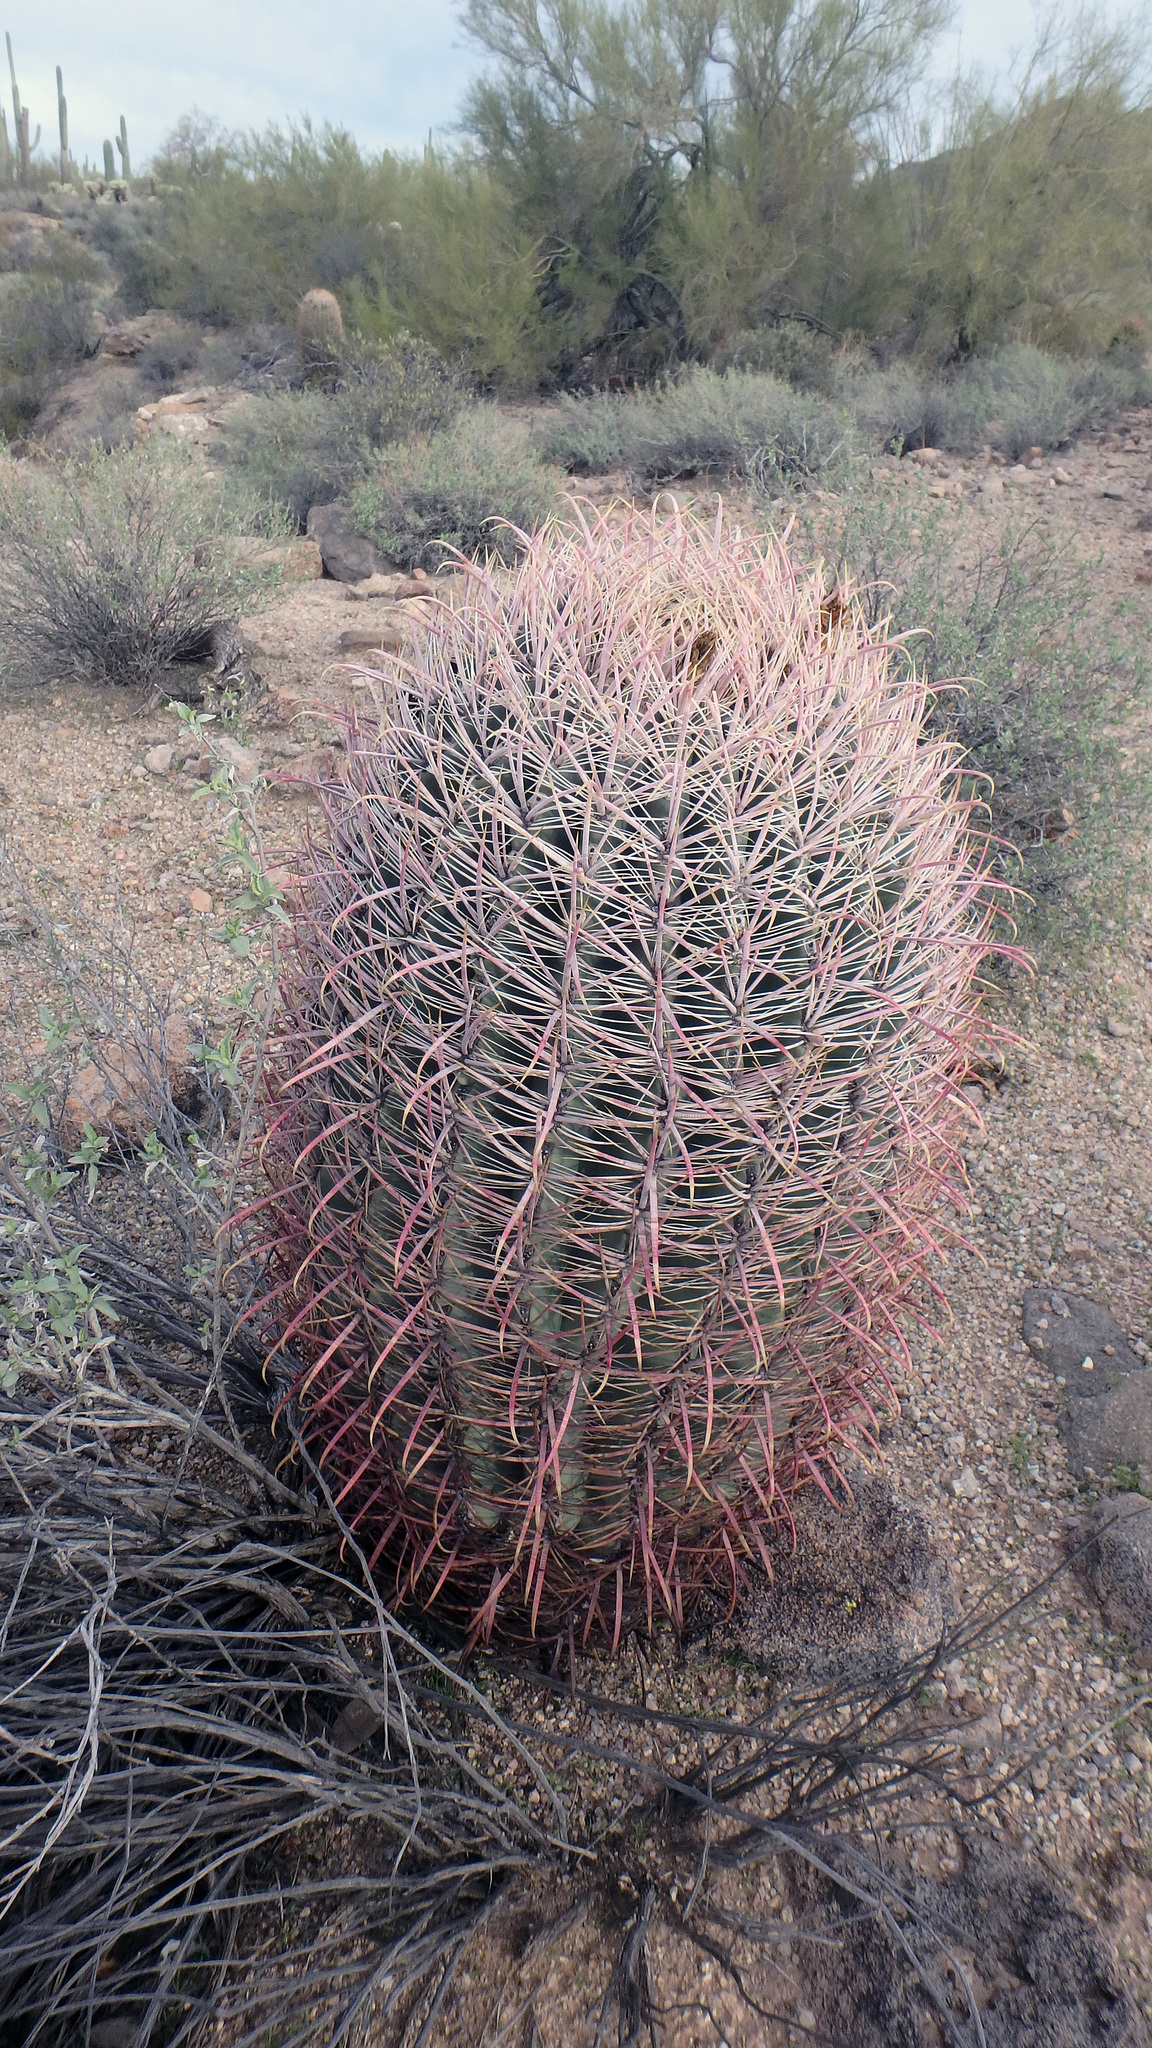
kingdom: Plantae
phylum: Tracheophyta
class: Magnoliopsida
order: Caryophyllales
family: Cactaceae
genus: Ferocactus
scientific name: Ferocactus cylindraceus
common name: California barrel cactus
